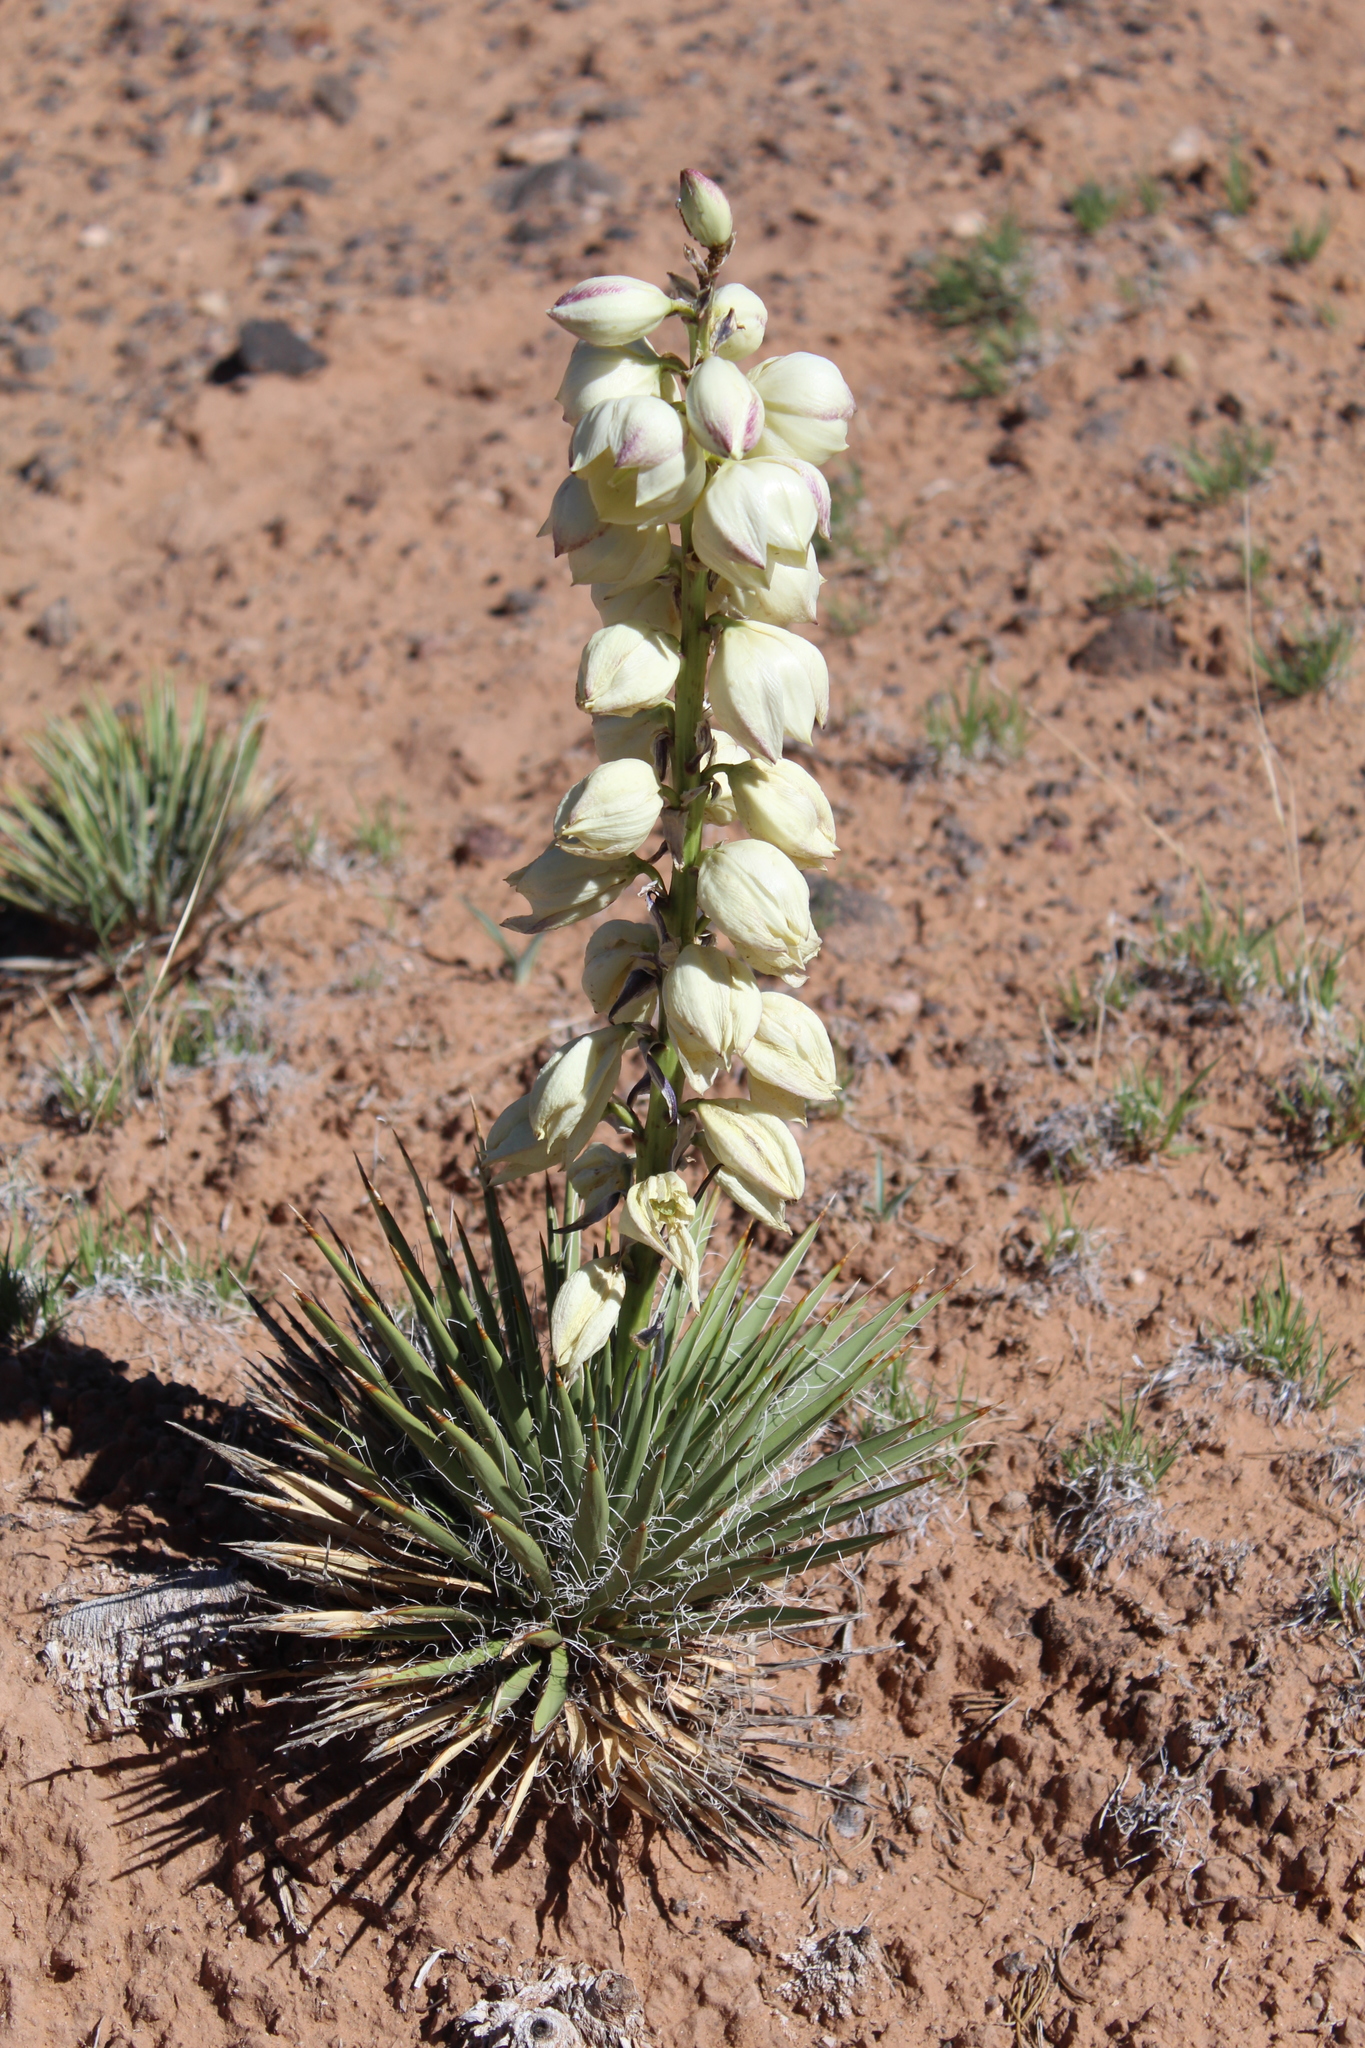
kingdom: Plantae
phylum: Tracheophyta
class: Liliopsida
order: Asparagales
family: Asparagaceae
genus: Yucca
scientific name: Yucca harrimaniae
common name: Harriman's yucca
